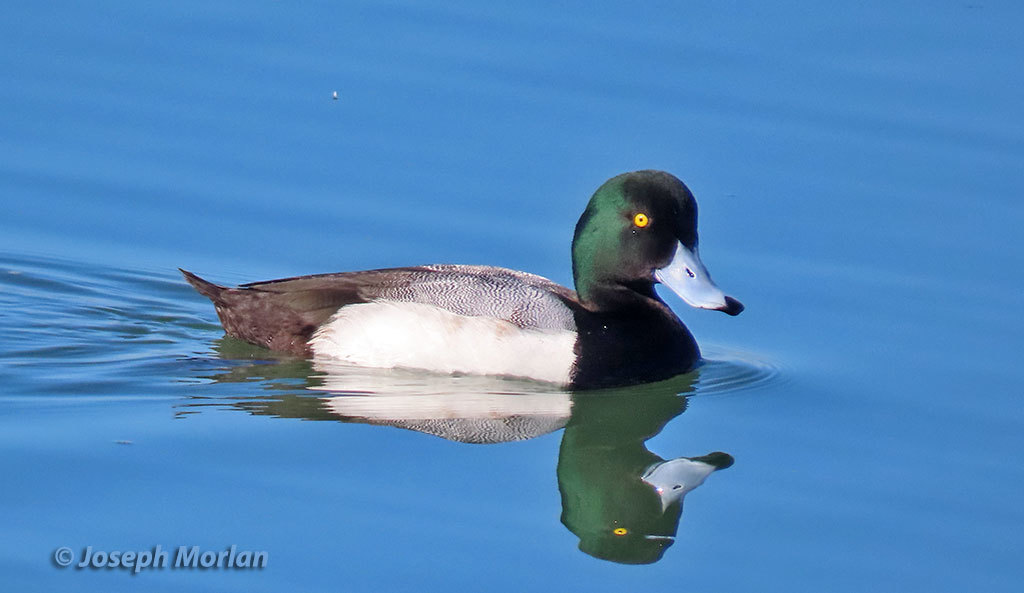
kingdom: Animalia
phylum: Chordata
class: Aves
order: Anseriformes
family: Anatidae
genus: Aythya
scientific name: Aythya marila
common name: Greater scaup
